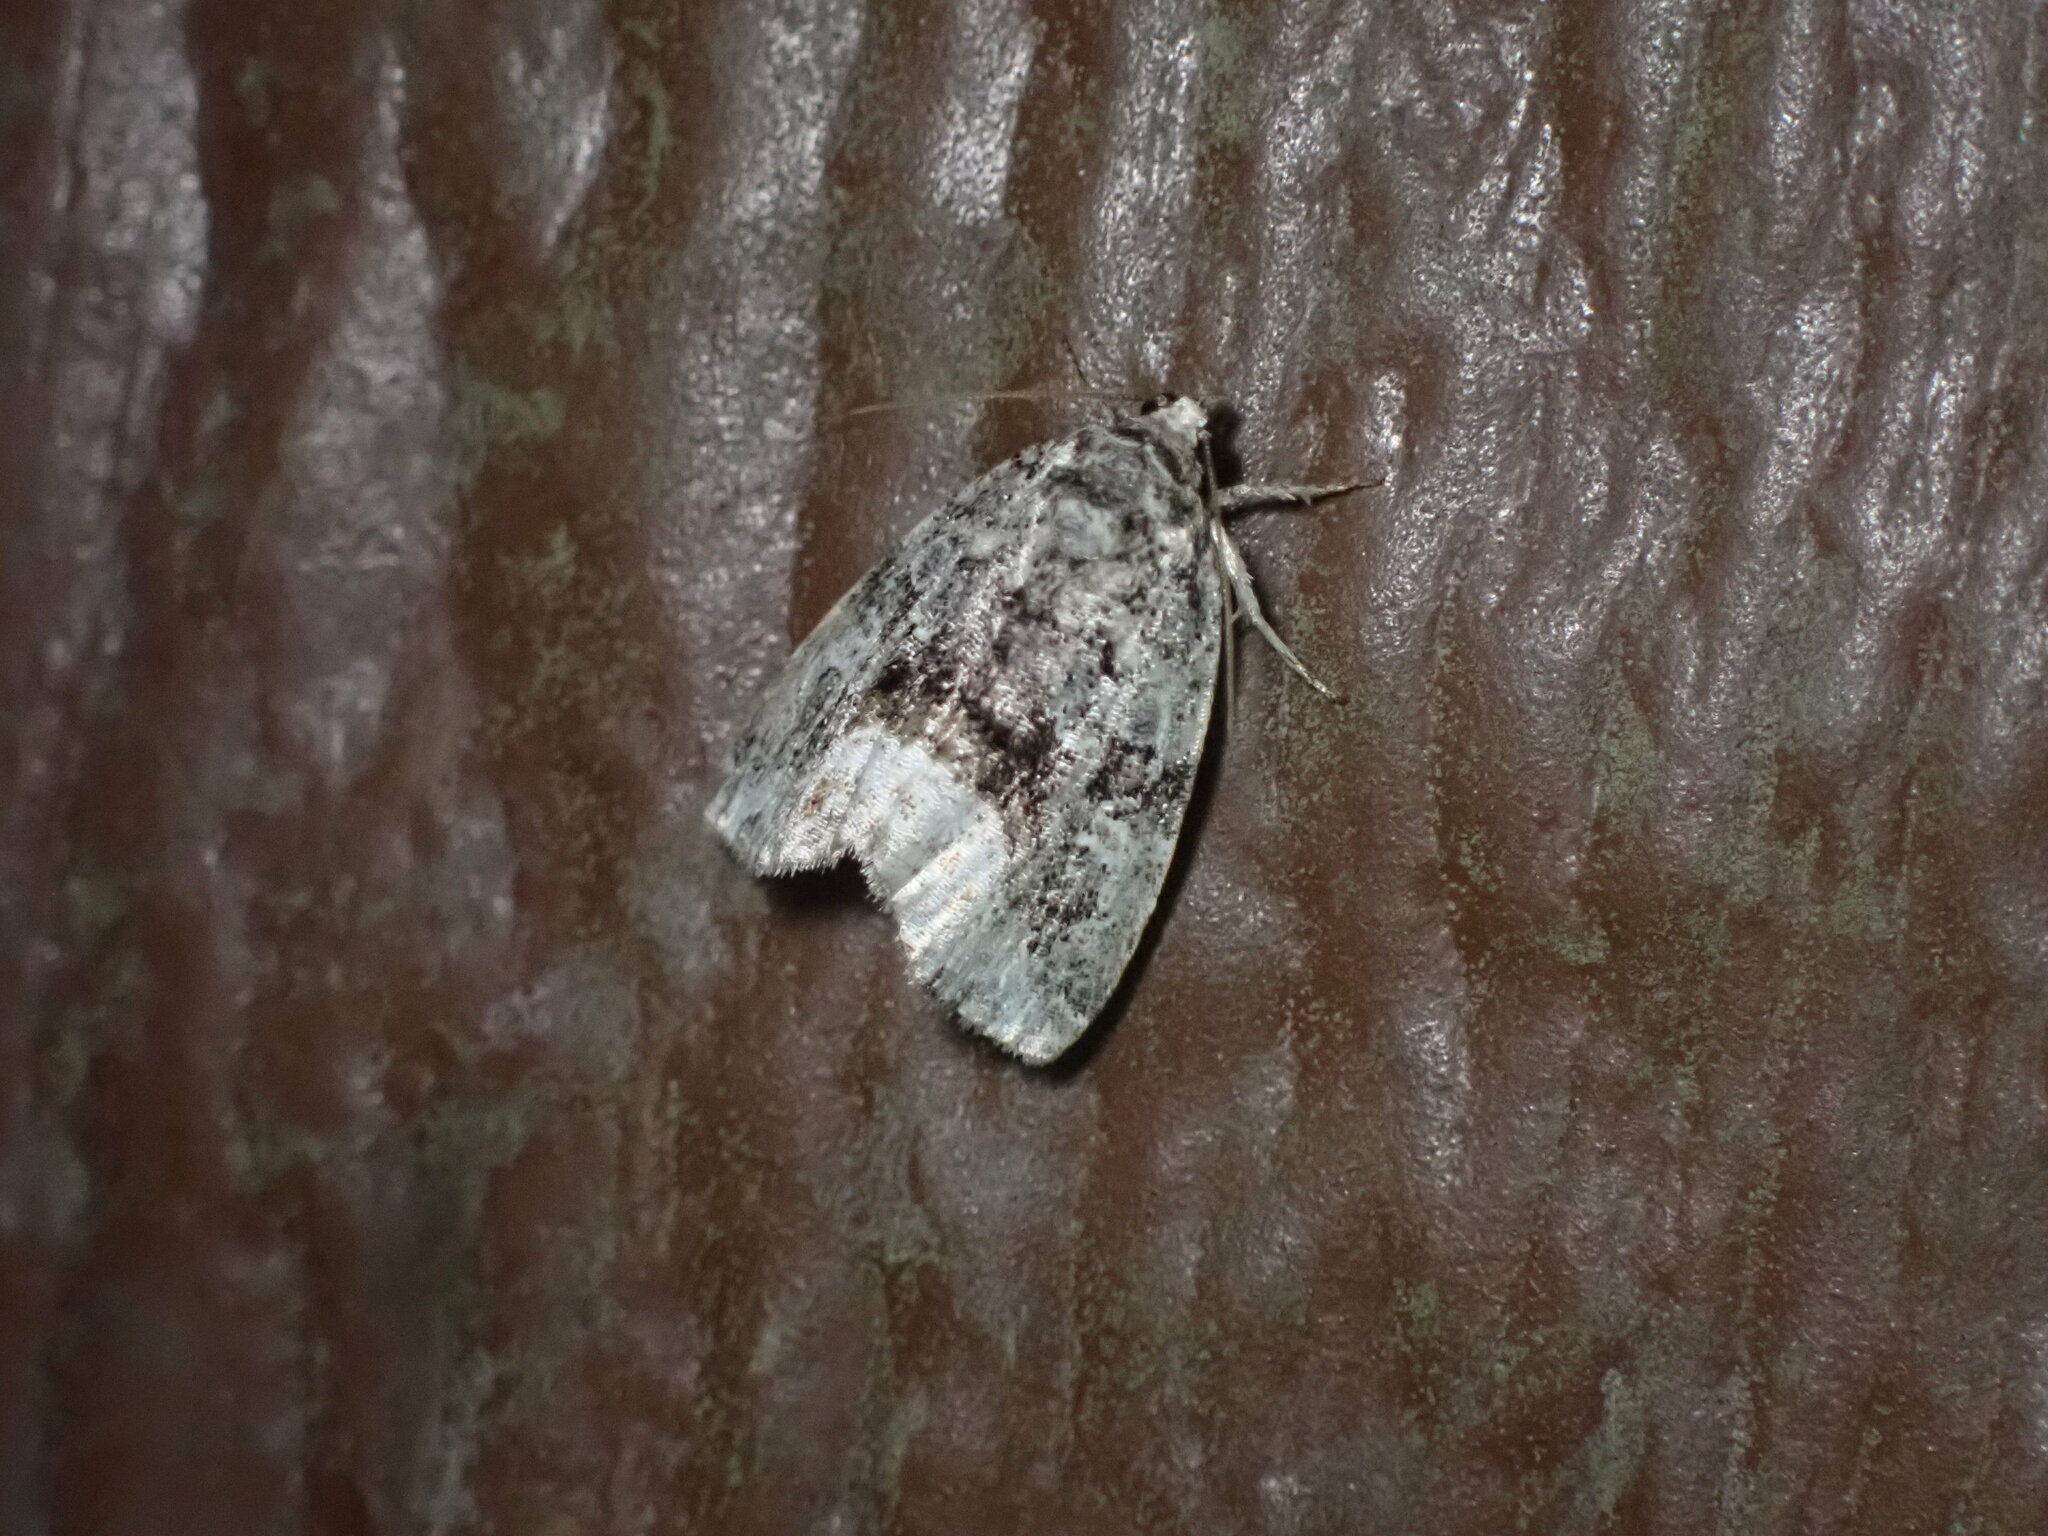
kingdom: Animalia
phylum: Arthropoda
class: Insecta
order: Lepidoptera
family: Noctuidae
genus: Protodeltote
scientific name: Protodeltote muscosula
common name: Large mossy glyph
